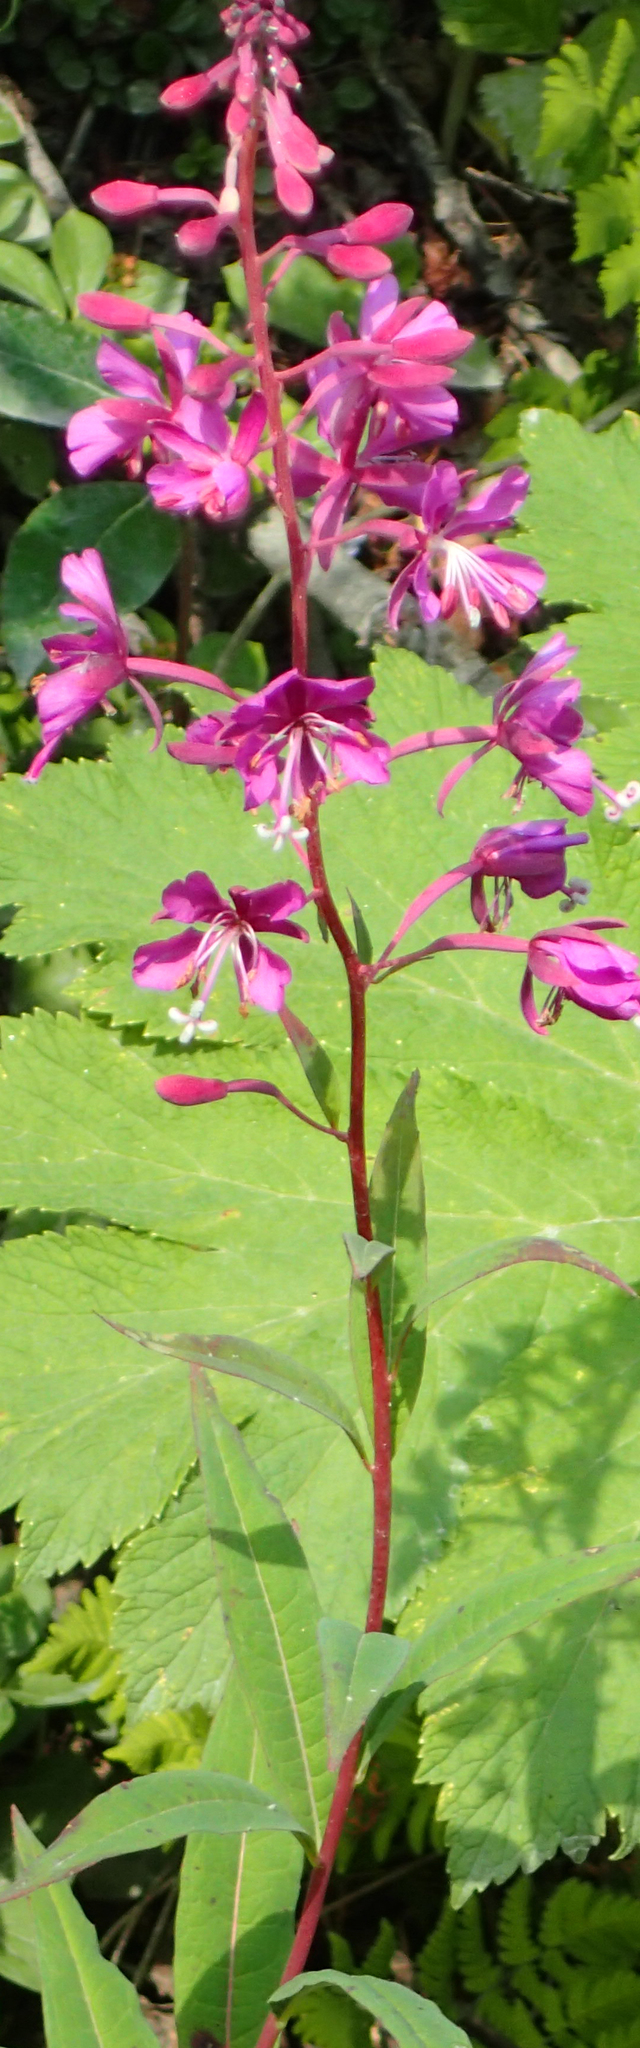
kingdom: Plantae
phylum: Tracheophyta
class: Magnoliopsida
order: Myrtales
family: Onagraceae
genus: Chamaenerion
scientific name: Chamaenerion angustifolium
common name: Fireweed
